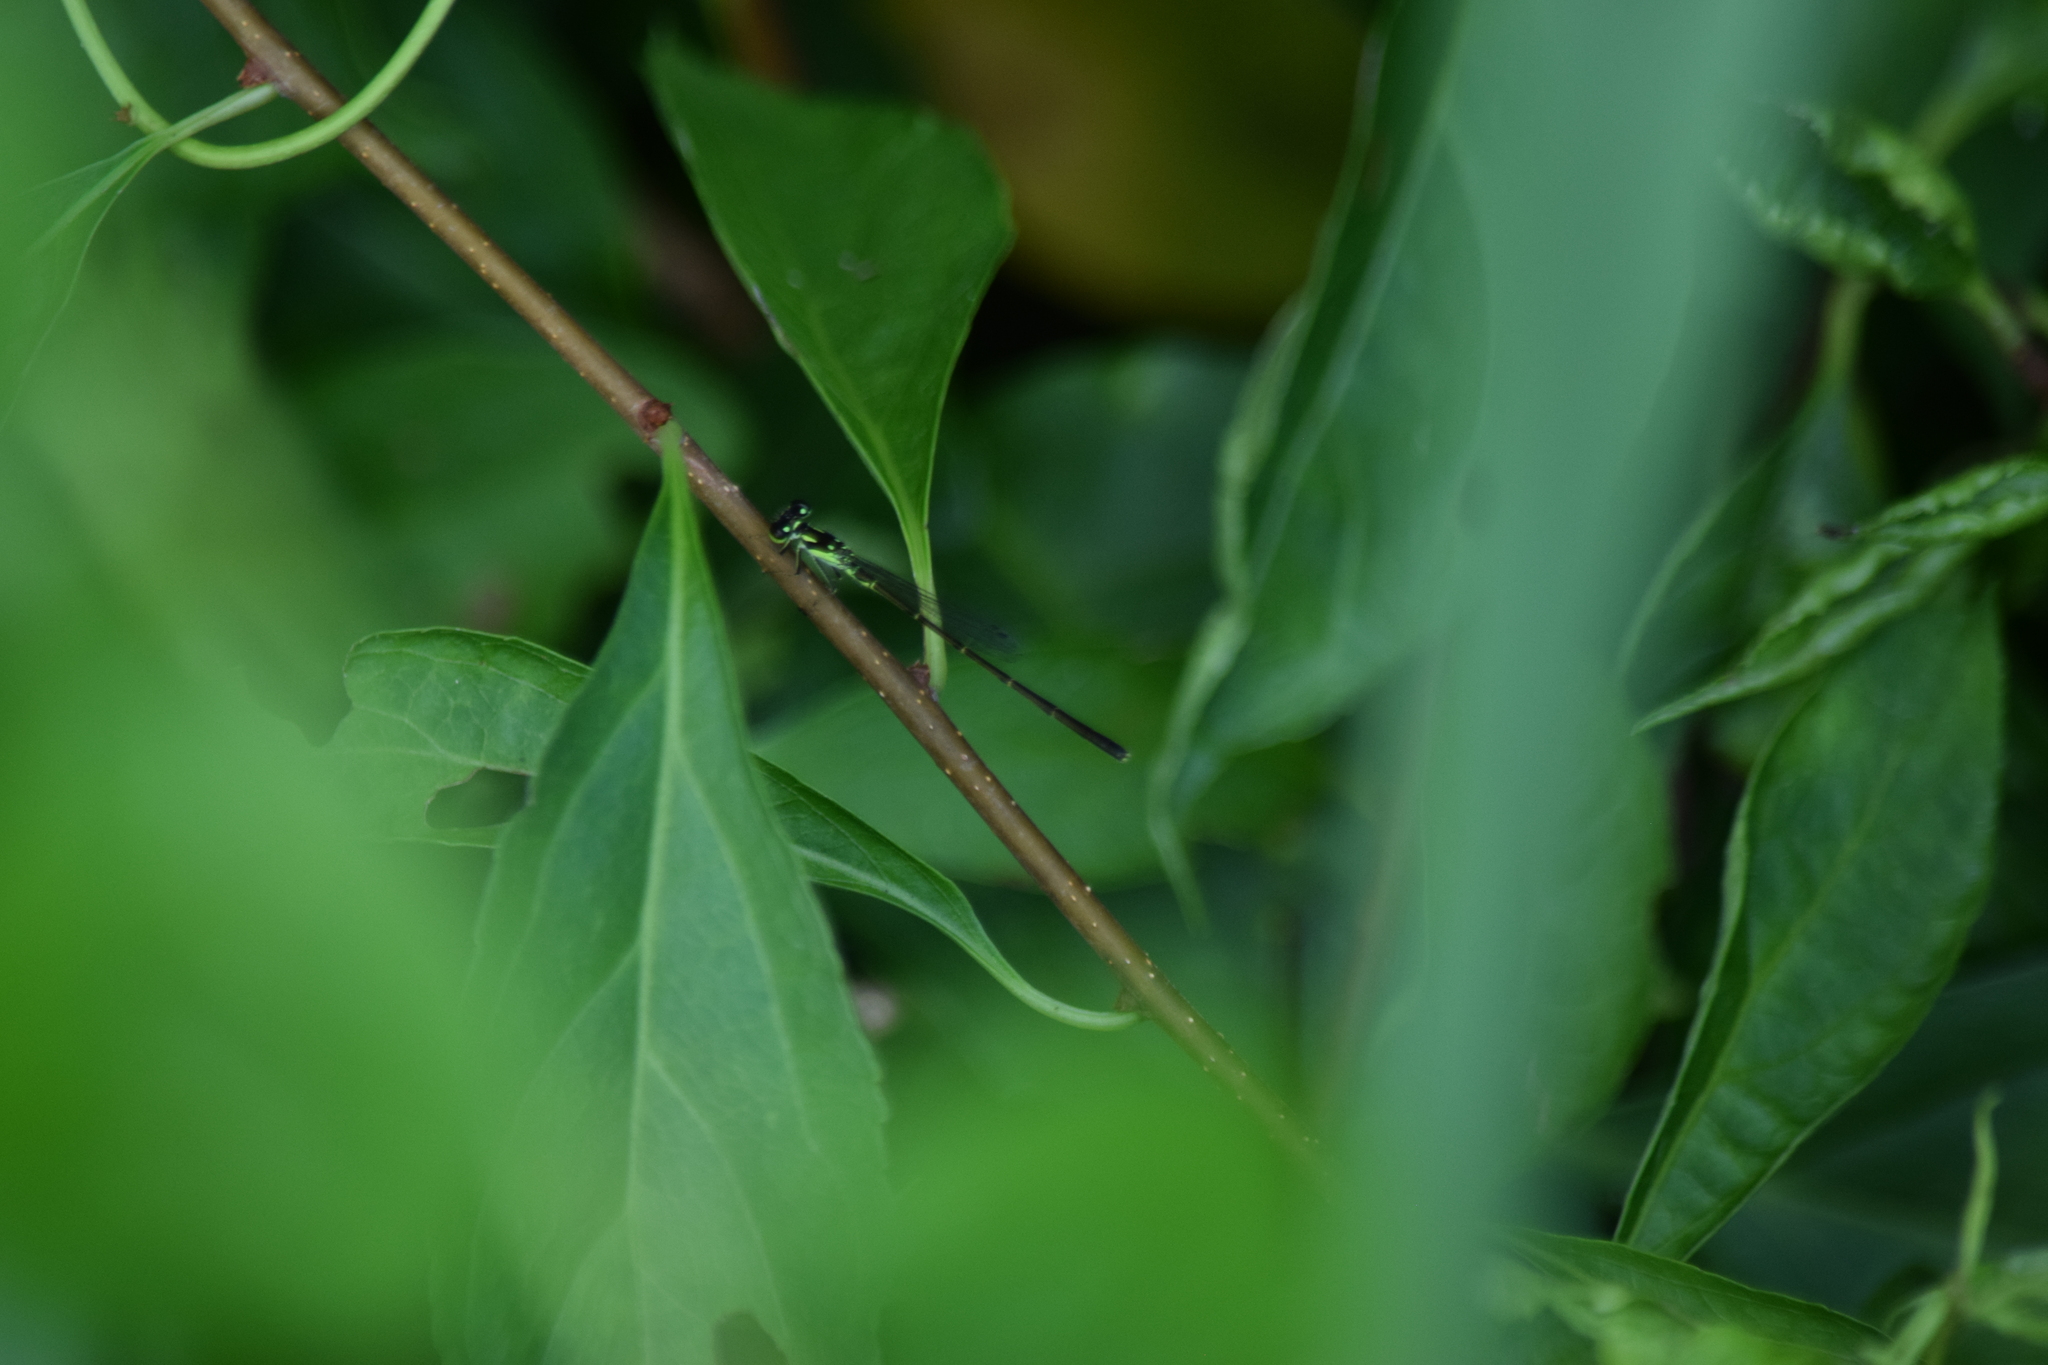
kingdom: Animalia
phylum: Arthropoda
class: Insecta
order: Odonata
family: Coenagrionidae
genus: Ischnura
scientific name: Ischnura posita
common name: Fragile forktail
